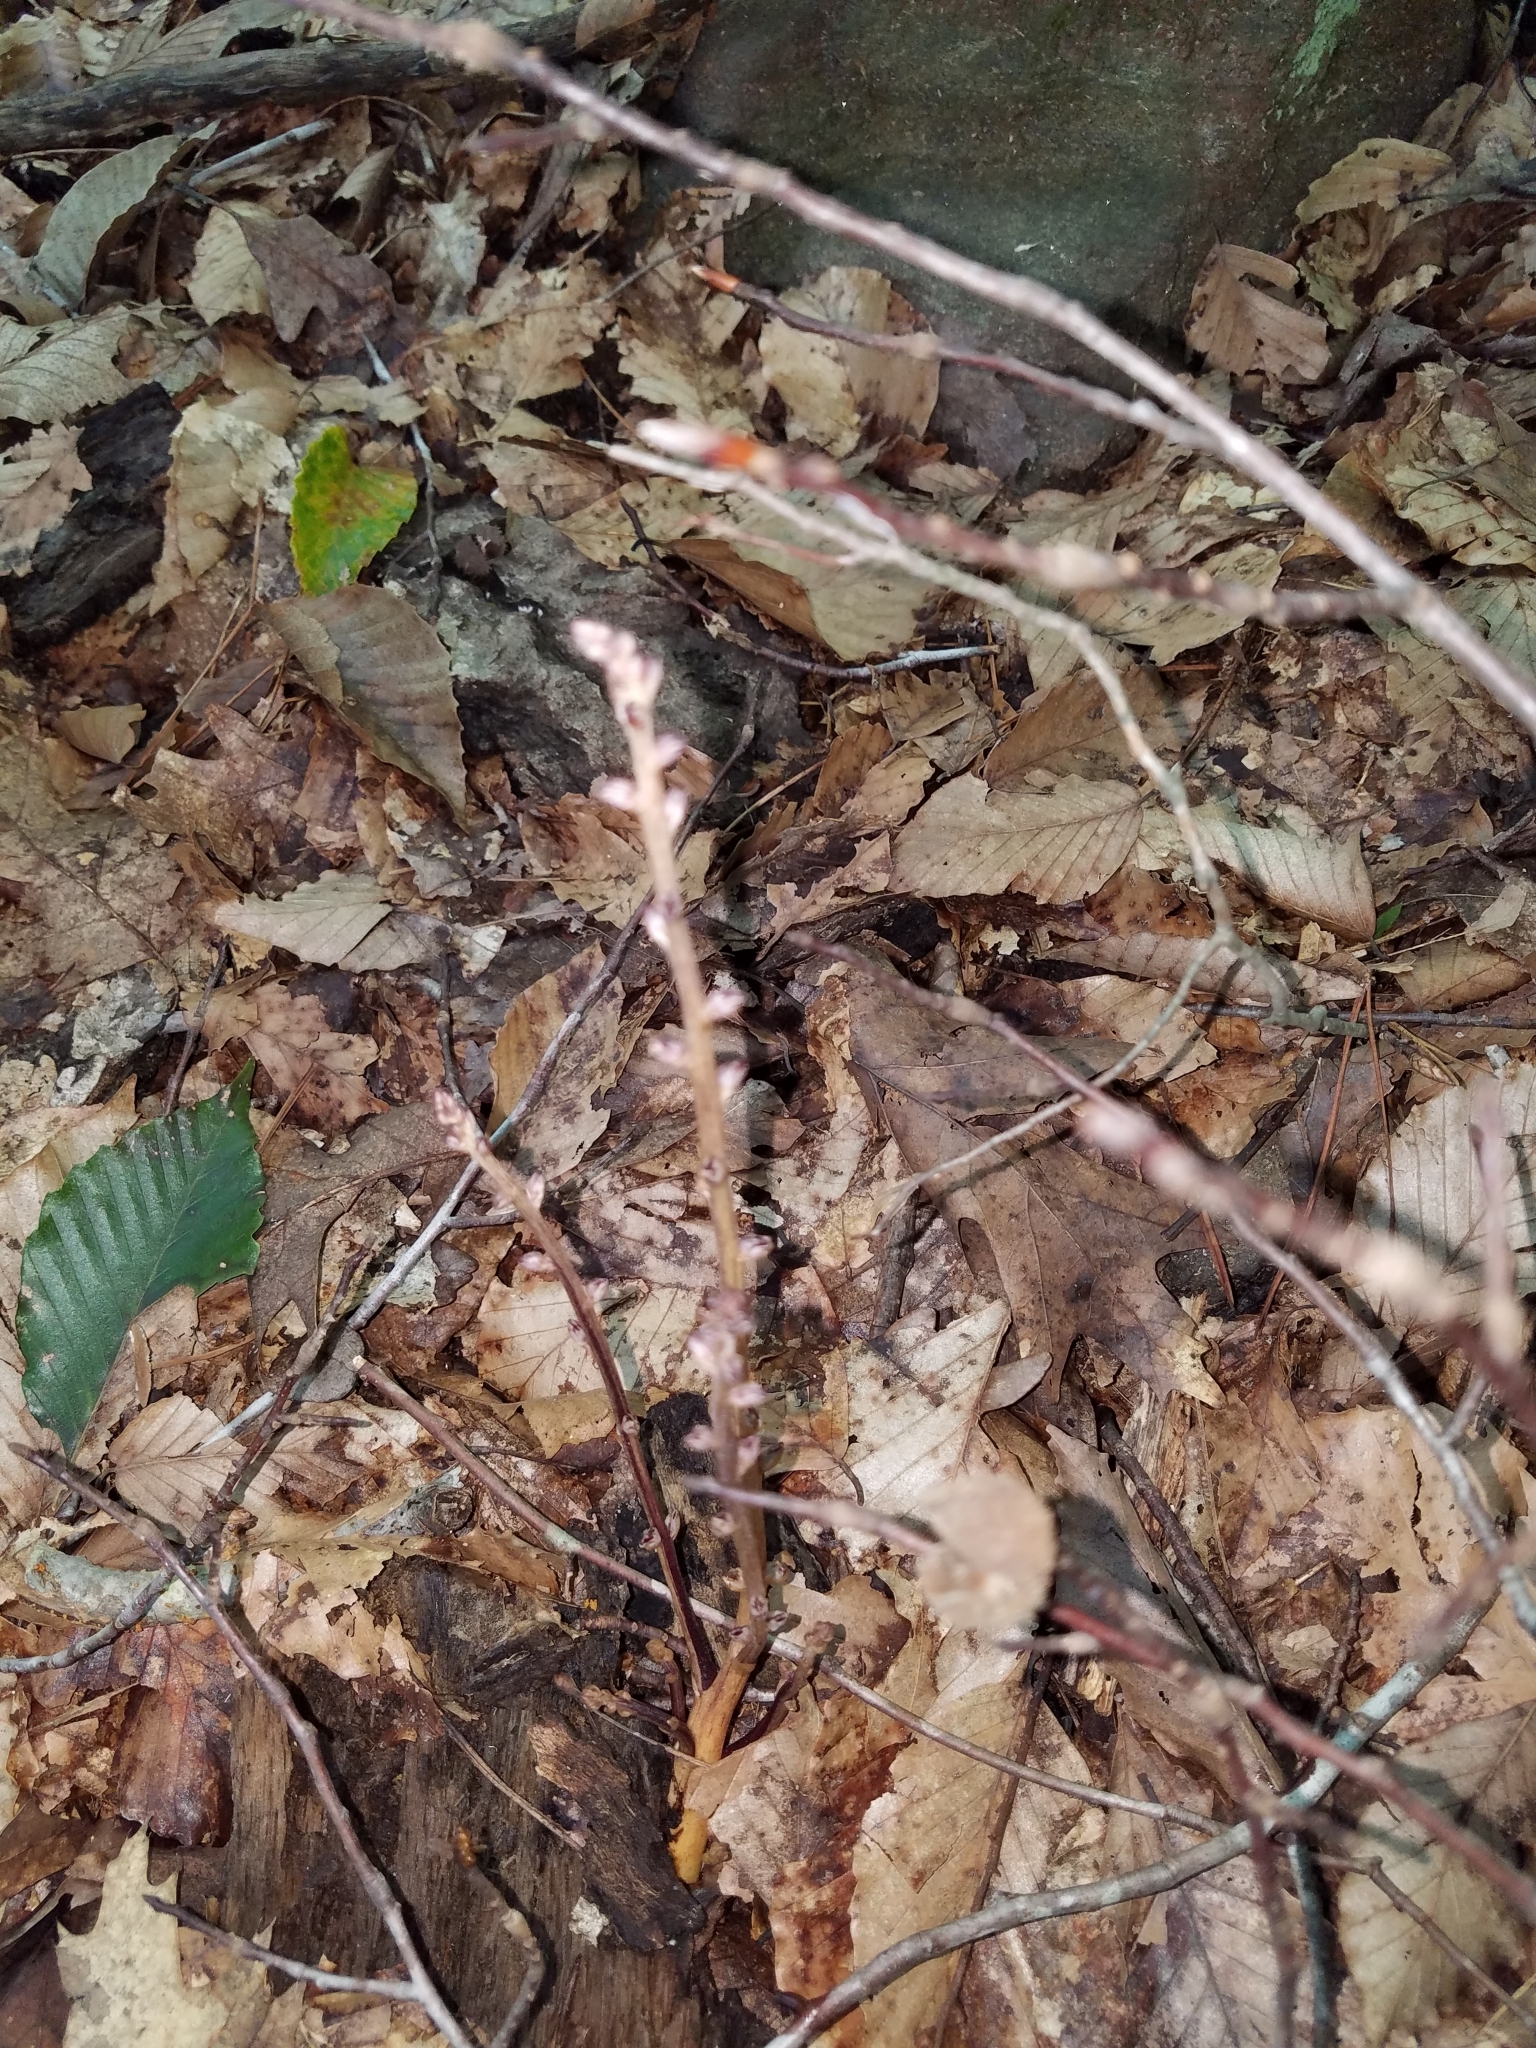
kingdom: Plantae
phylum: Tracheophyta
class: Magnoliopsida
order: Lamiales
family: Orobanchaceae
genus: Epifagus
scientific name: Epifagus virginiana
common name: Beechdrops
